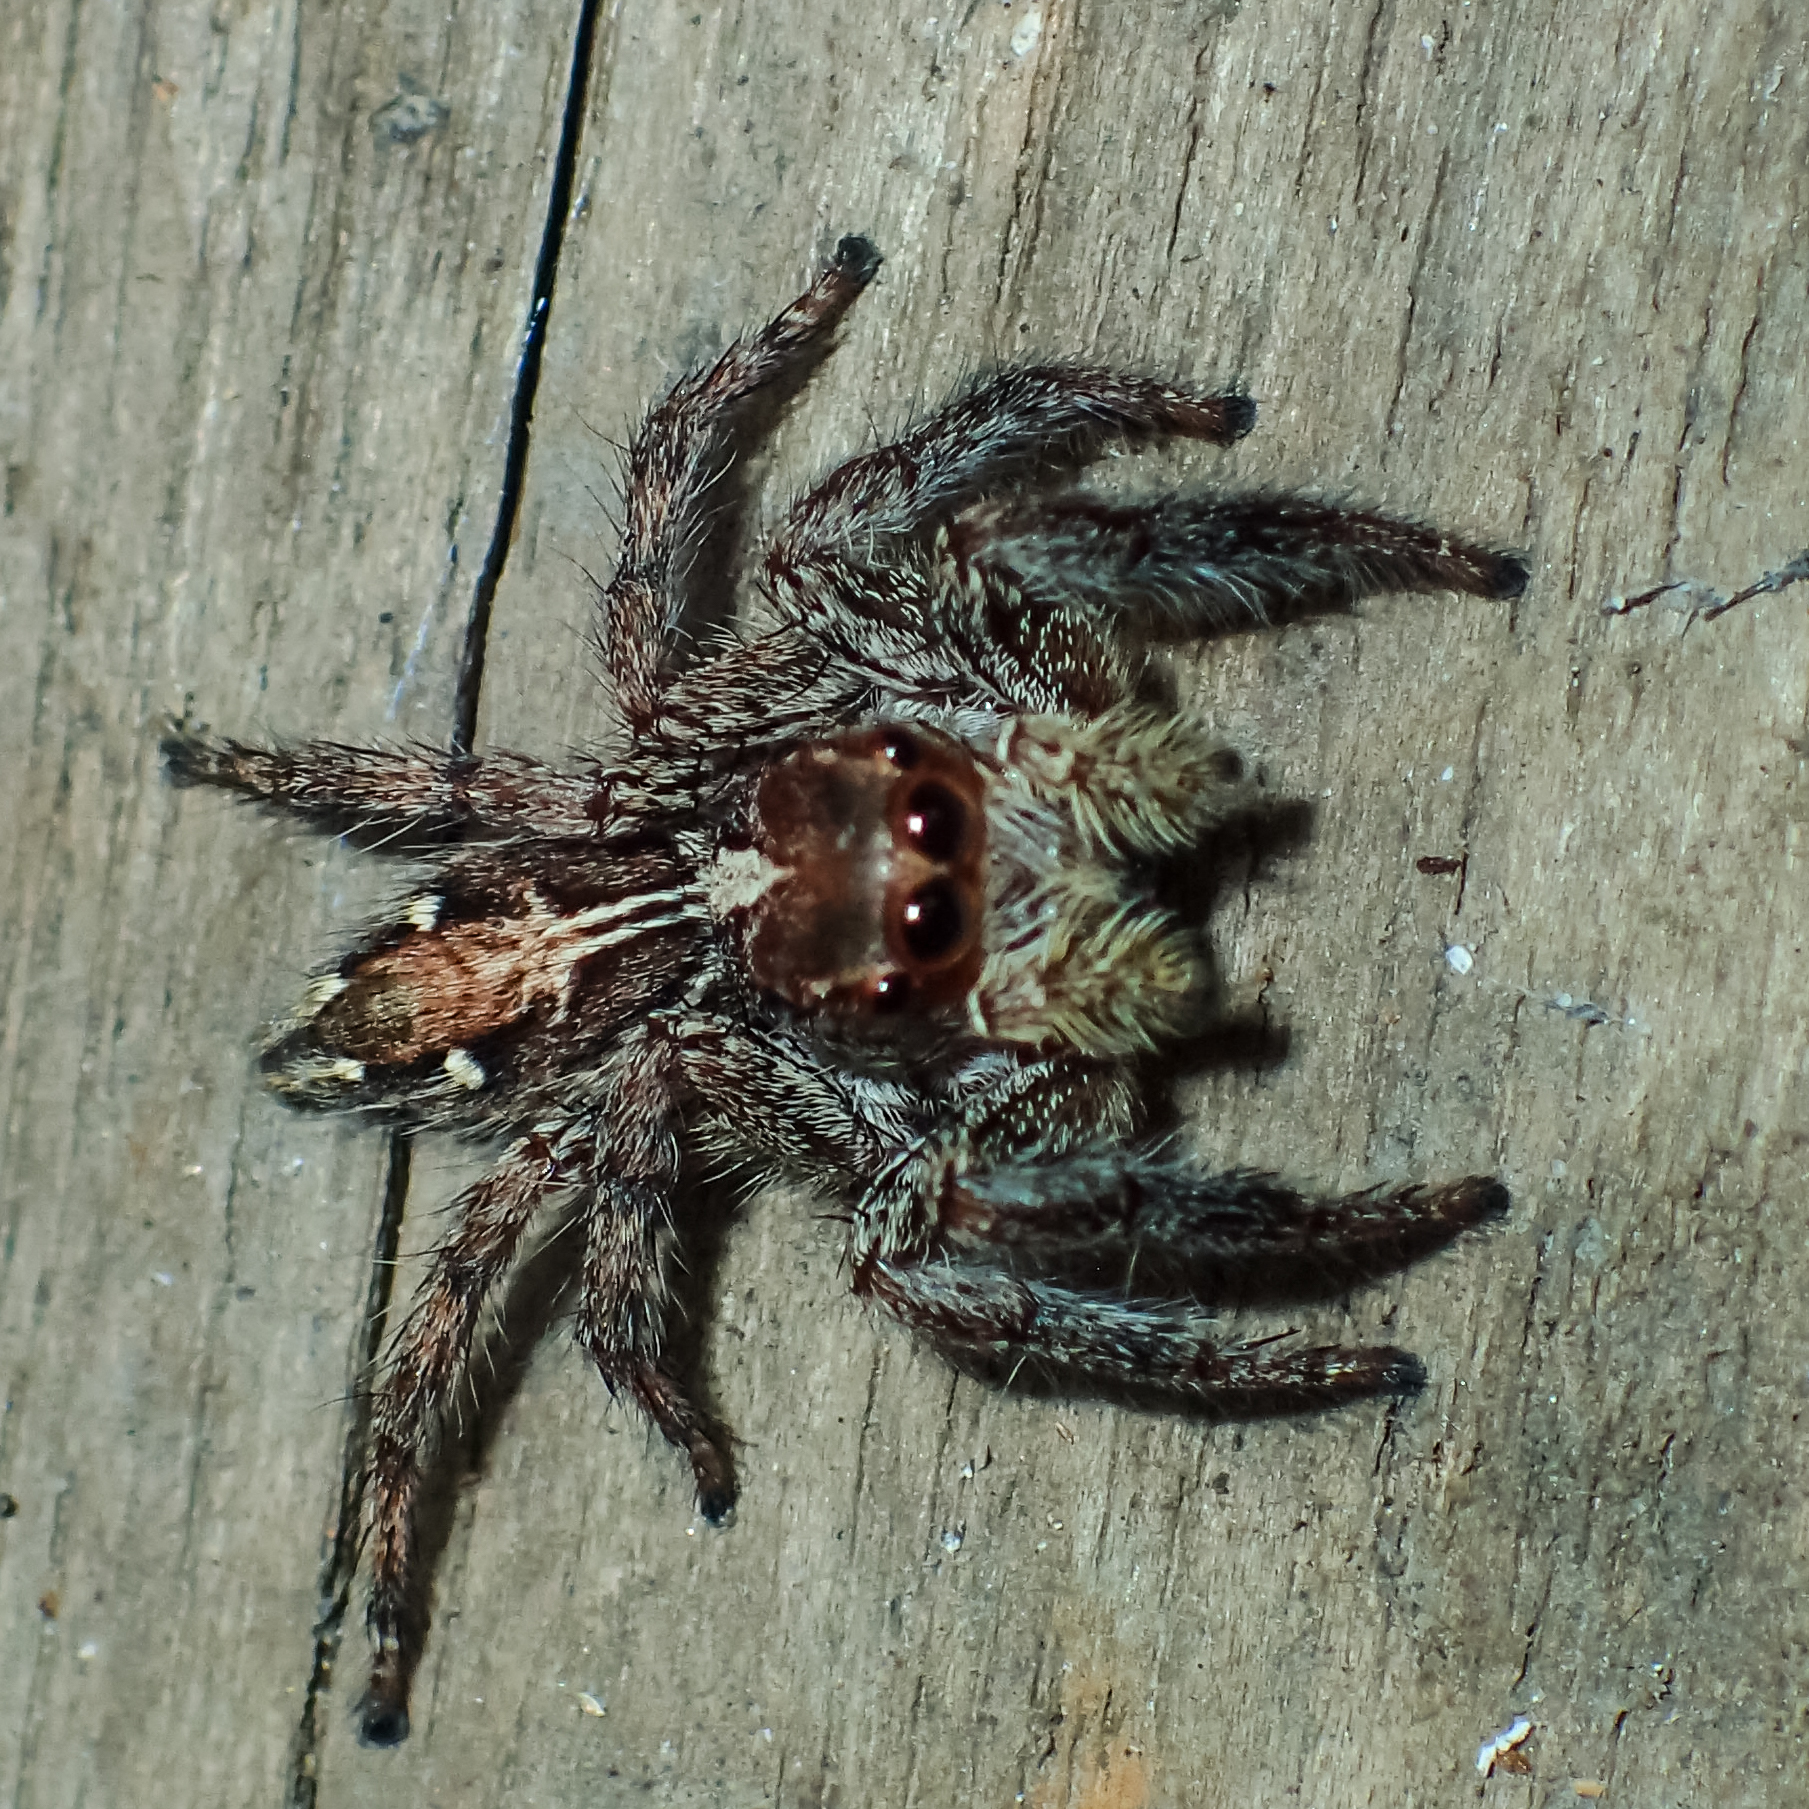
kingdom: Animalia
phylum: Arthropoda
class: Arachnida
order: Araneae
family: Salticidae
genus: Plexippus
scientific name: Plexippus paykulli
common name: Pantropical jumper
